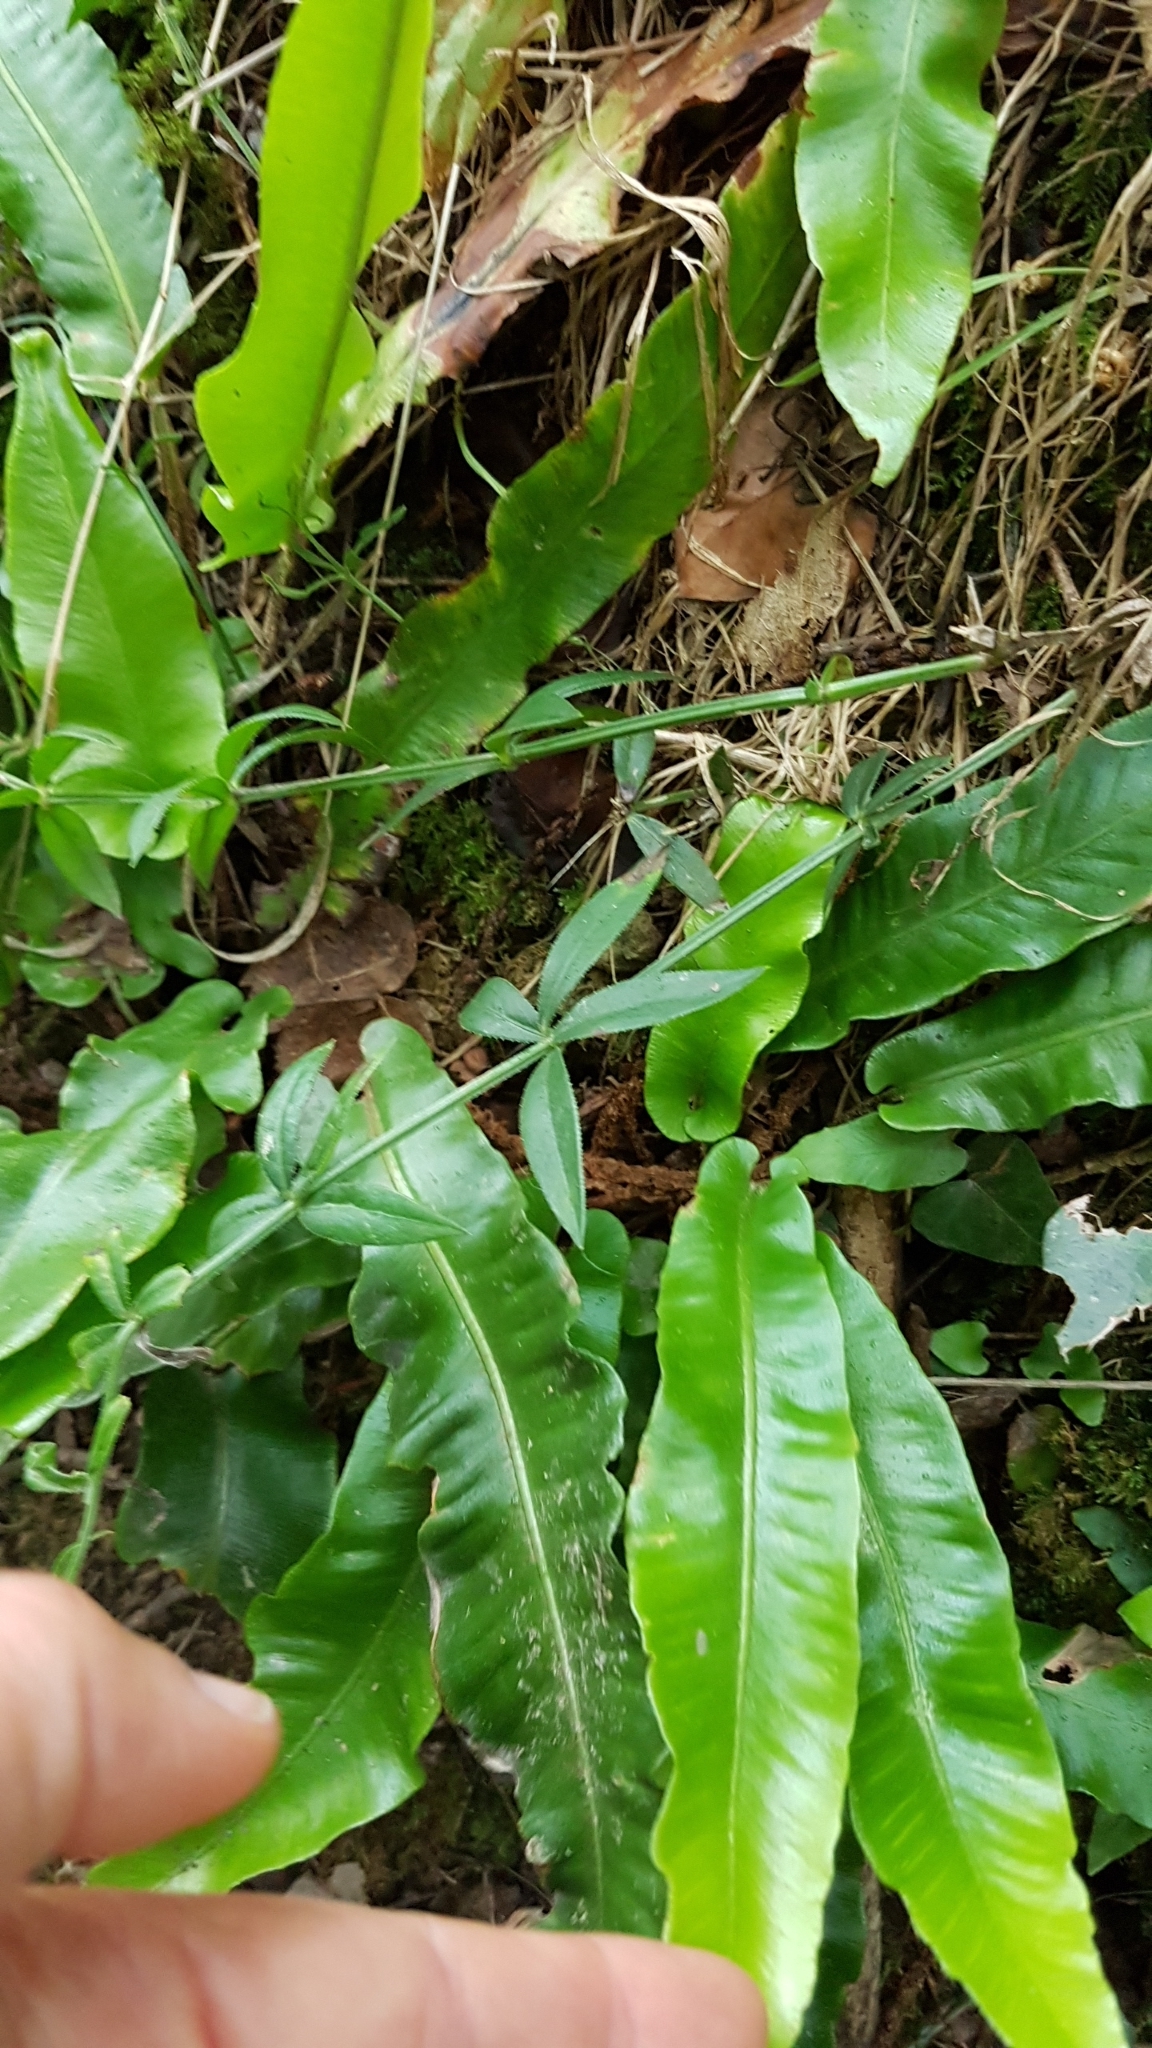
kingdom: Plantae
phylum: Tracheophyta
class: Polypodiopsida
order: Polypodiales
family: Aspleniaceae
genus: Asplenium
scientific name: Asplenium scolopendrium
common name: Hart's-tongue fern
